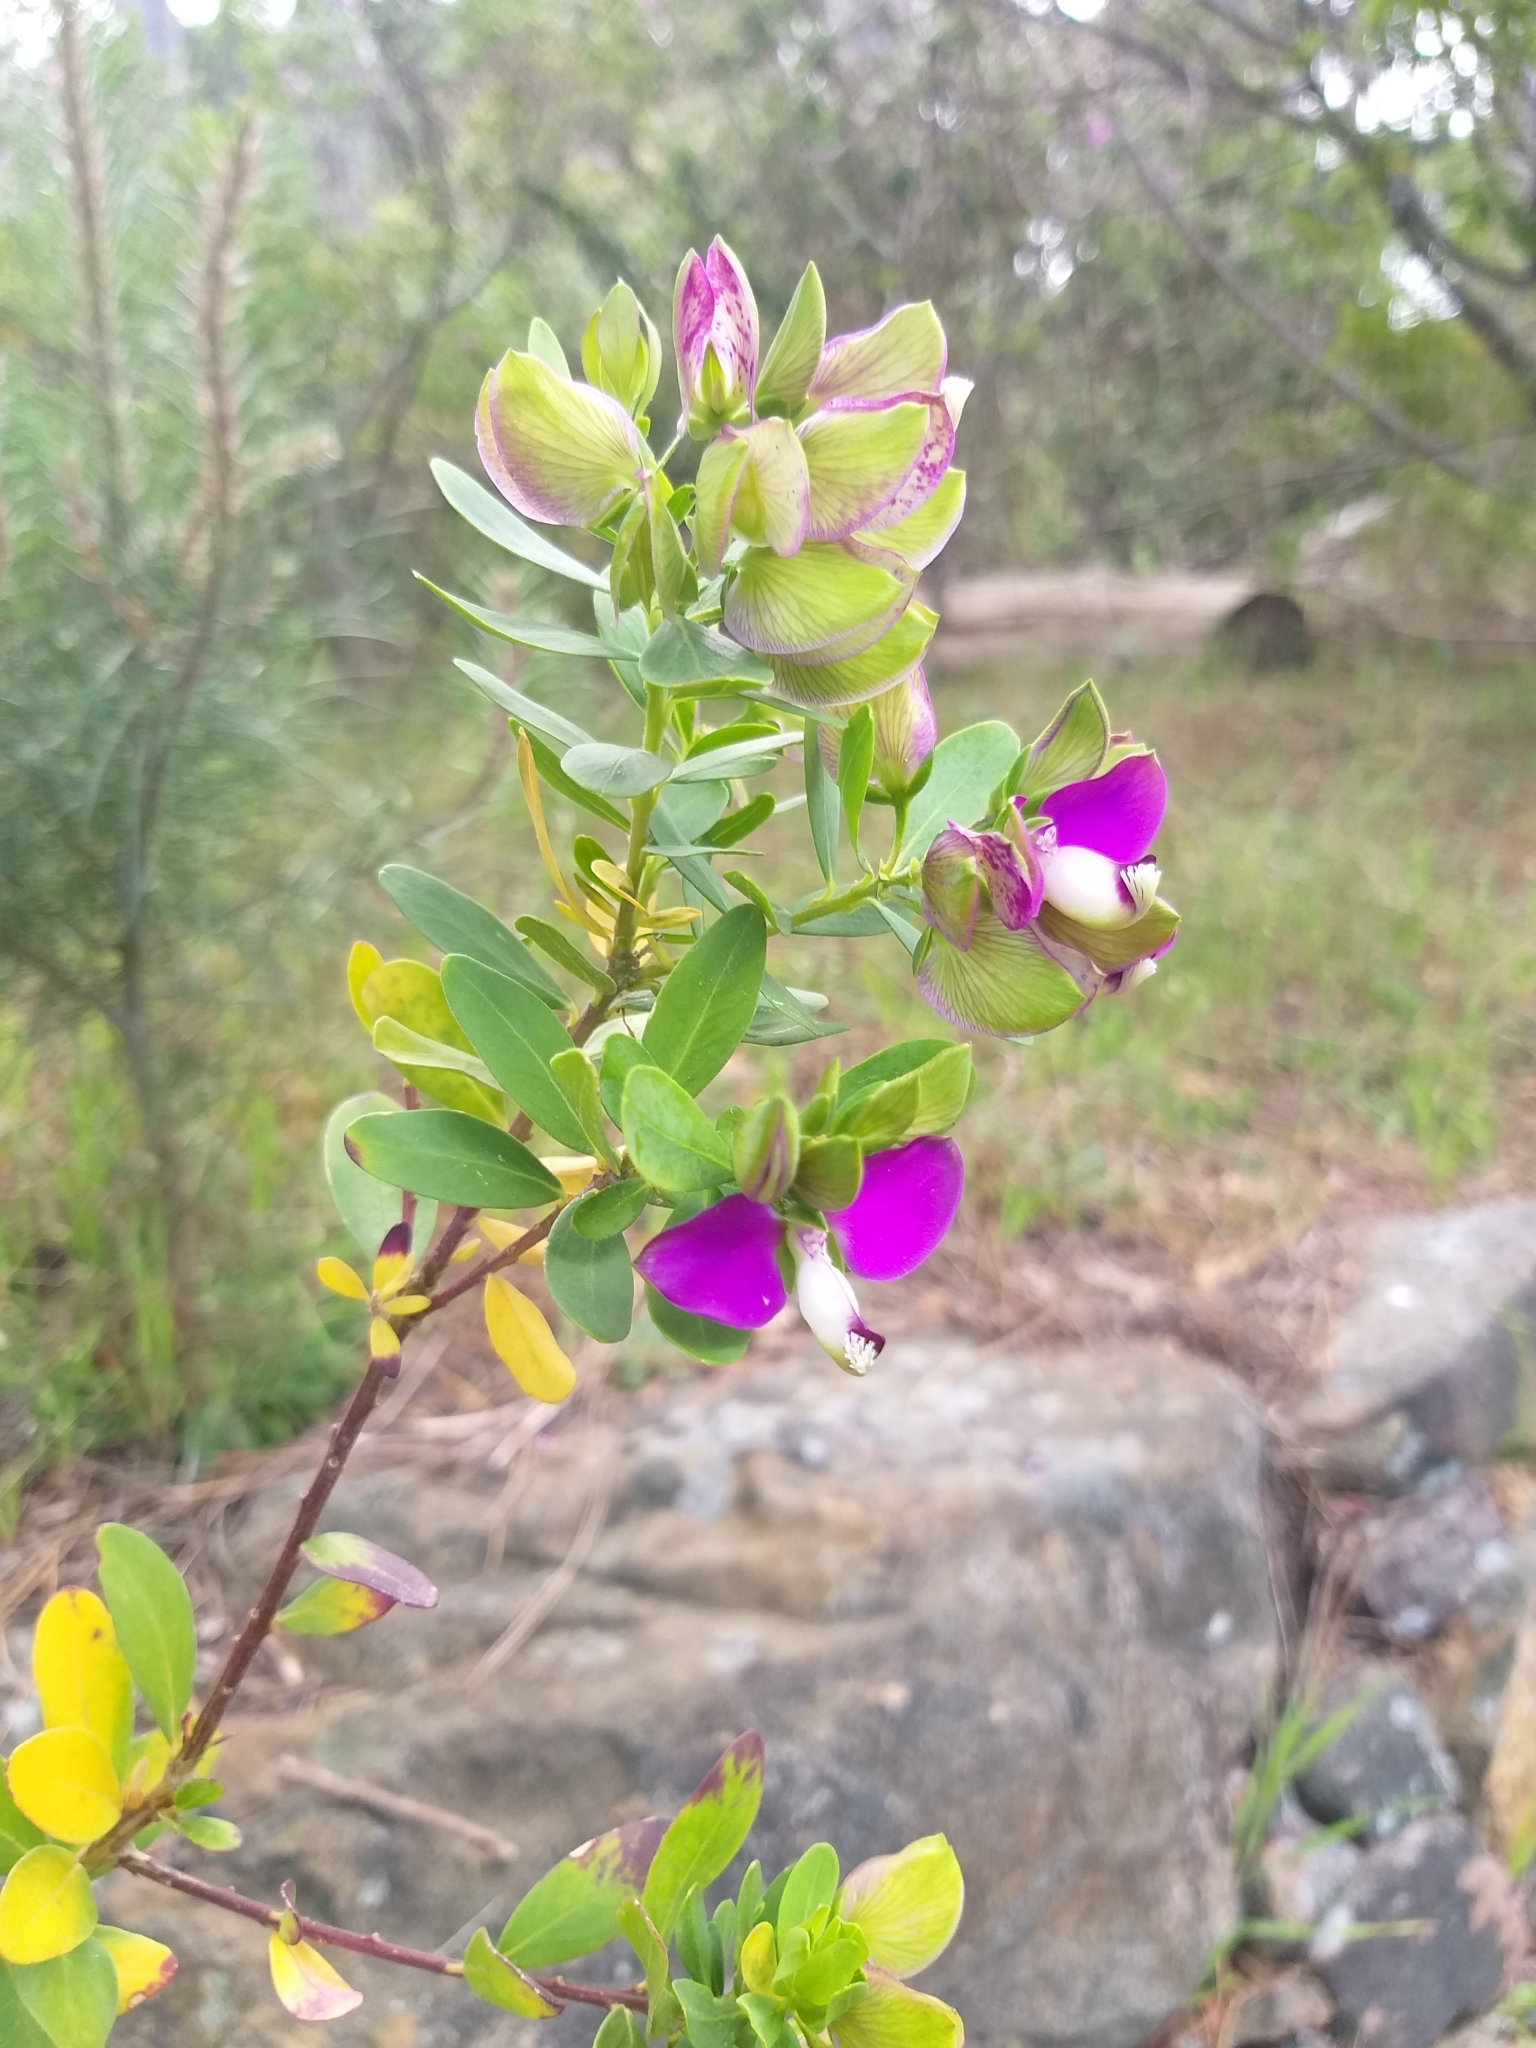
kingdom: Plantae
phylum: Tracheophyta
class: Magnoliopsida
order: Fabales
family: Polygalaceae
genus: Polygala
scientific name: Polygala myrtifolia
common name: Myrtle-leaf milkwort
